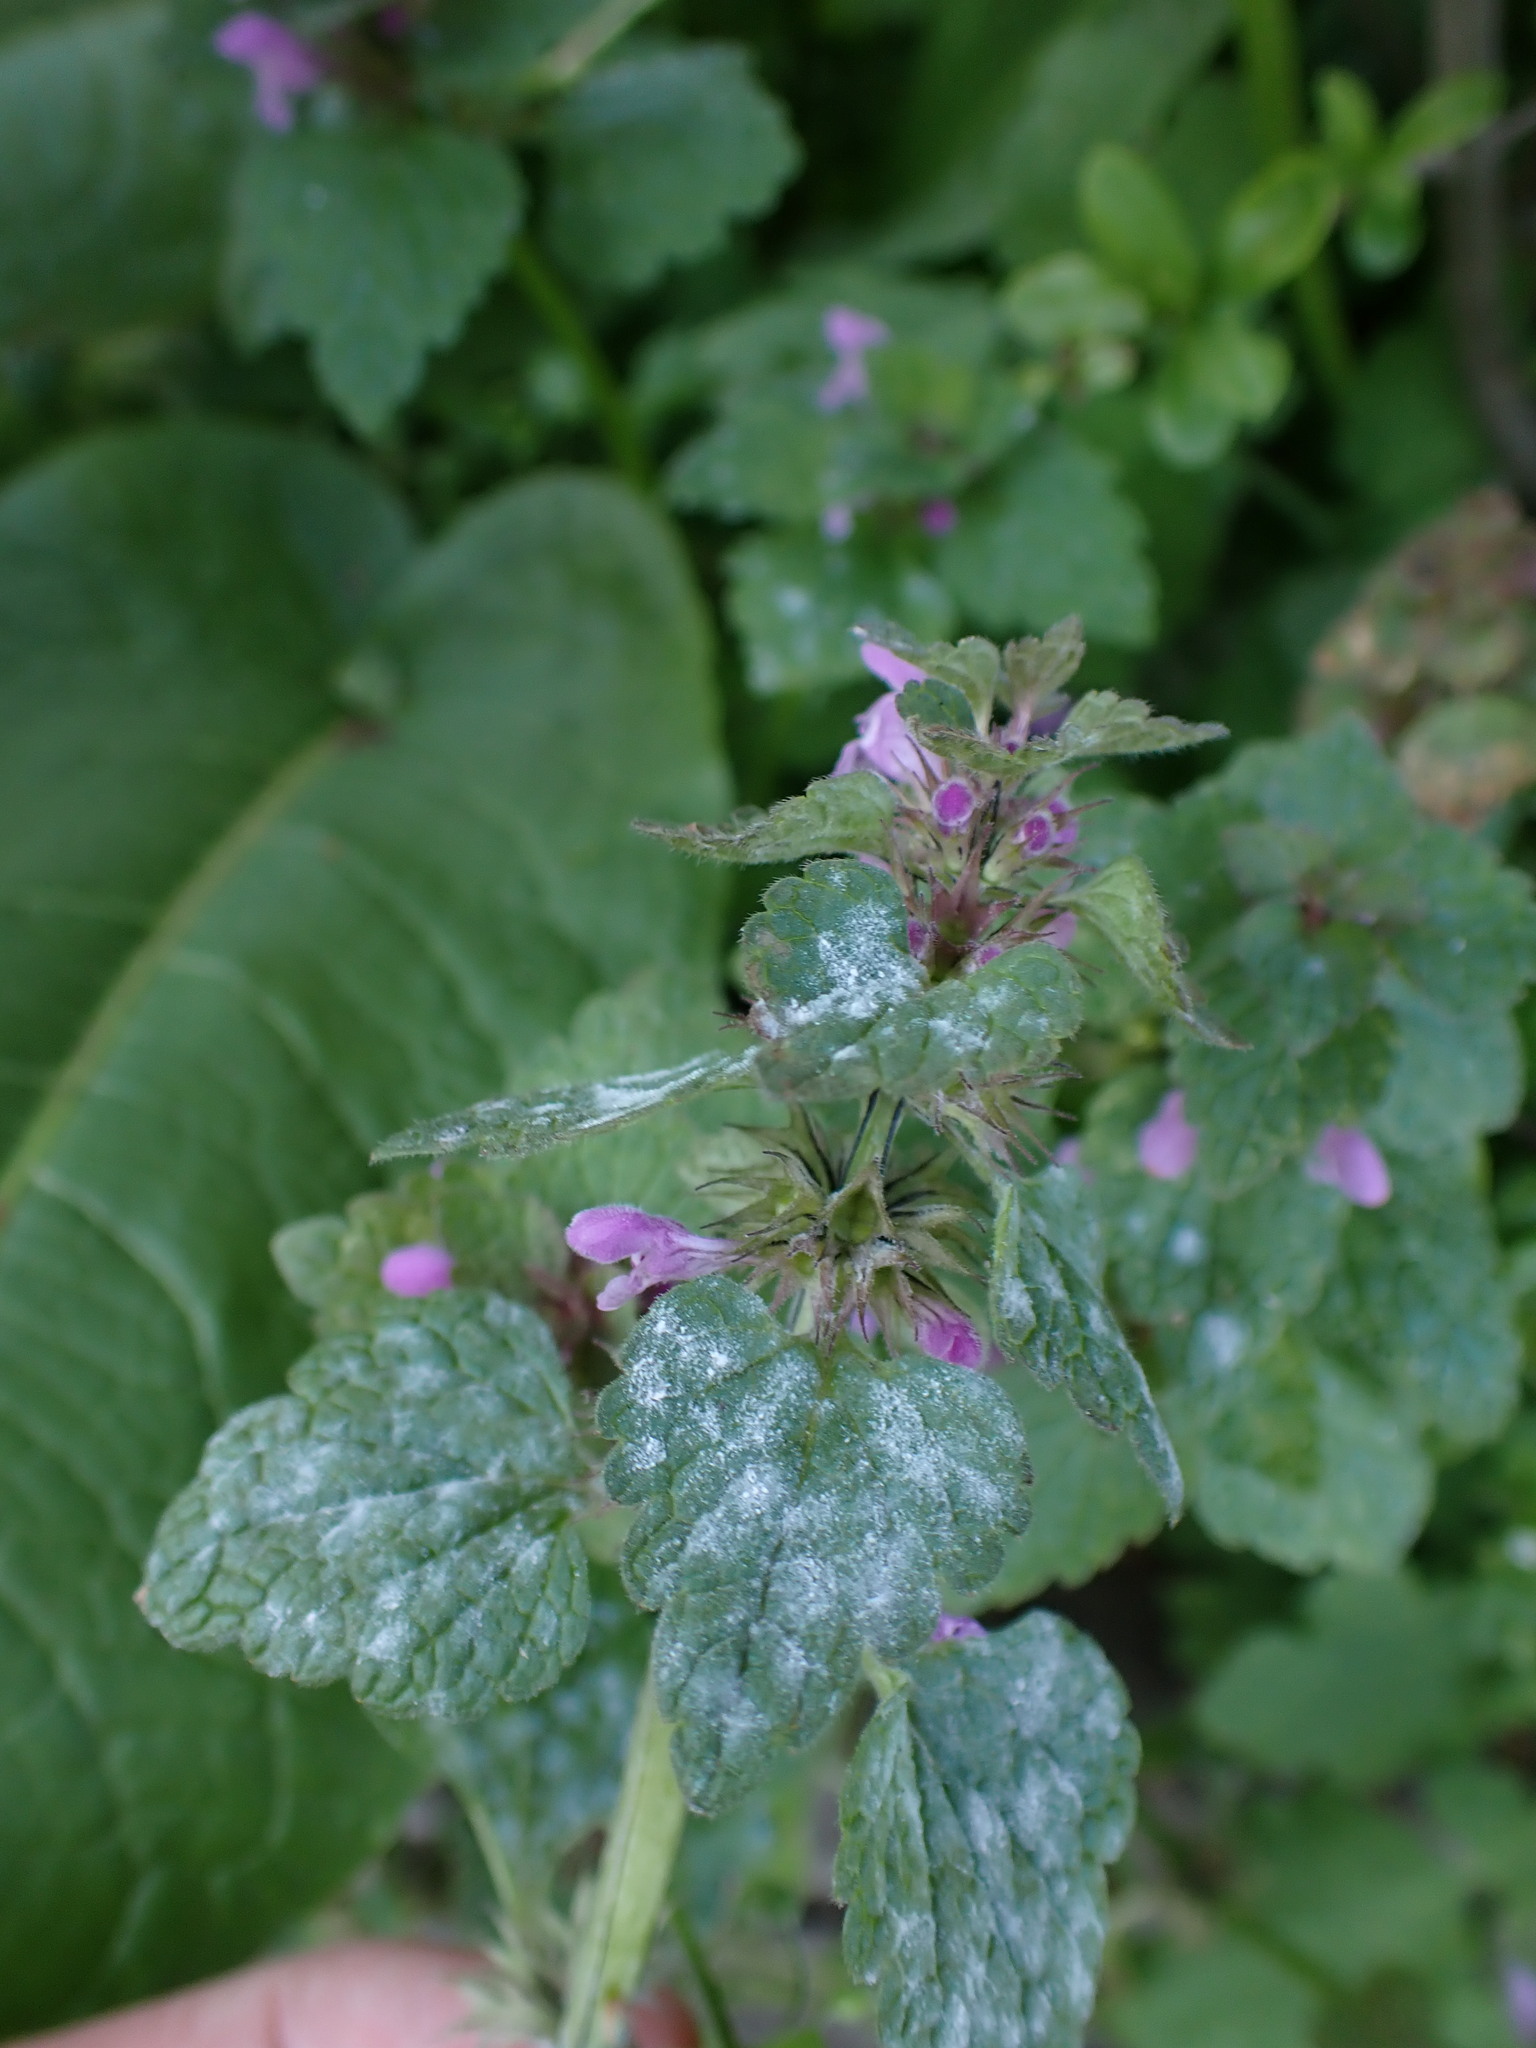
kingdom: Fungi
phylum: Ascomycota
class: Leotiomycetes
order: Helotiales
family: Erysiphaceae
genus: Neoerysiphe
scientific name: Neoerysiphe galeopsidis
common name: Mint mildew
